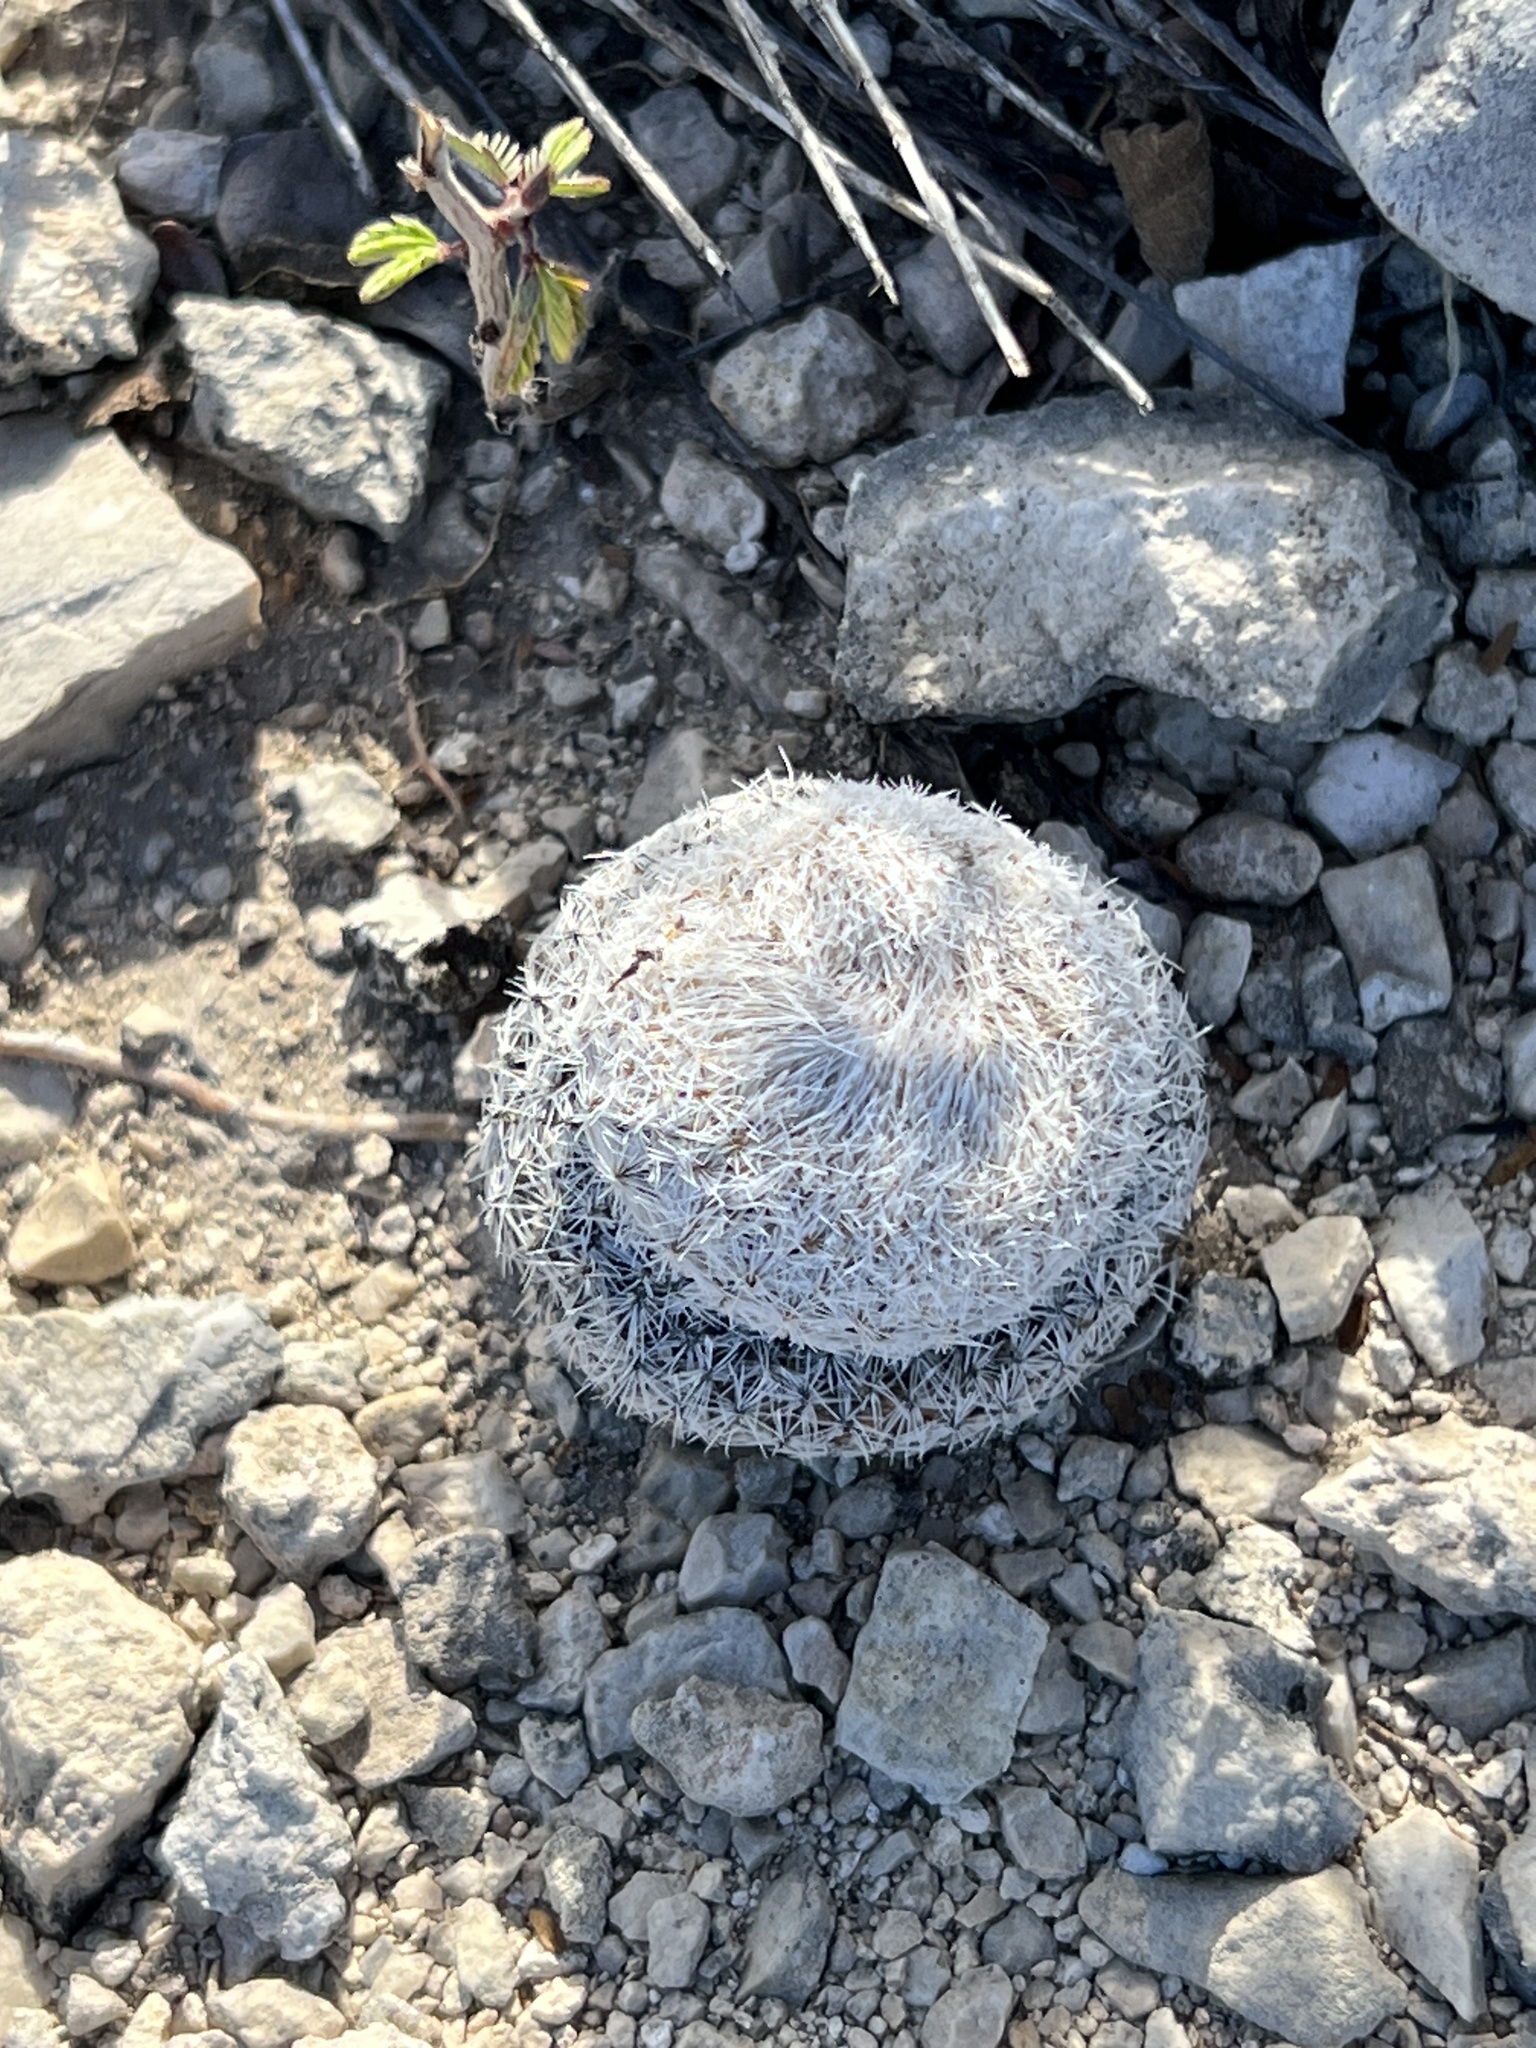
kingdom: Plantae
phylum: Tracheophyta
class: Magnoliopsida
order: Caryophyllales
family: Cactaceae
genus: Epithelantha
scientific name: Epithelantha micromeris
